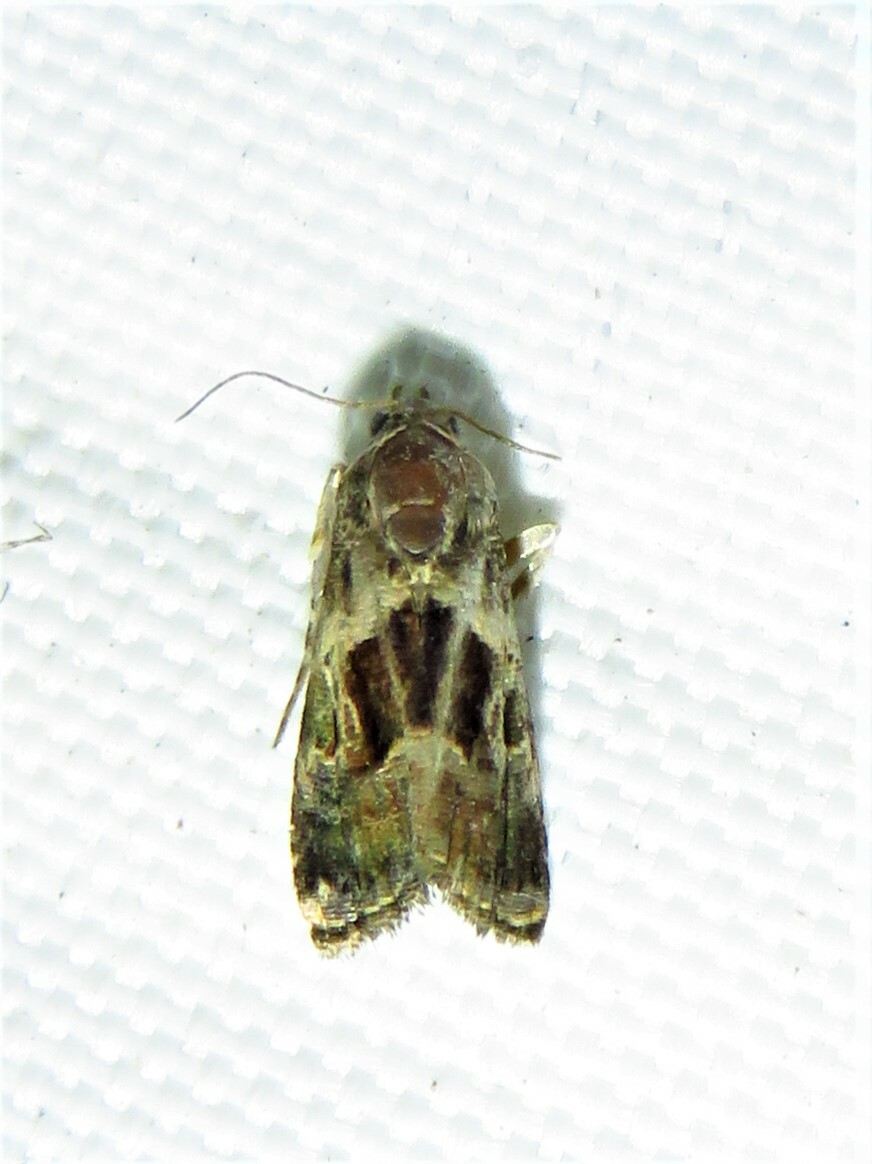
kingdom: Animalia
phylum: Arthropoda
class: Insecta
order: Lepidoptera
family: Noctuidae
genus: Tripudia
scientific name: Tripudia quadrifera
